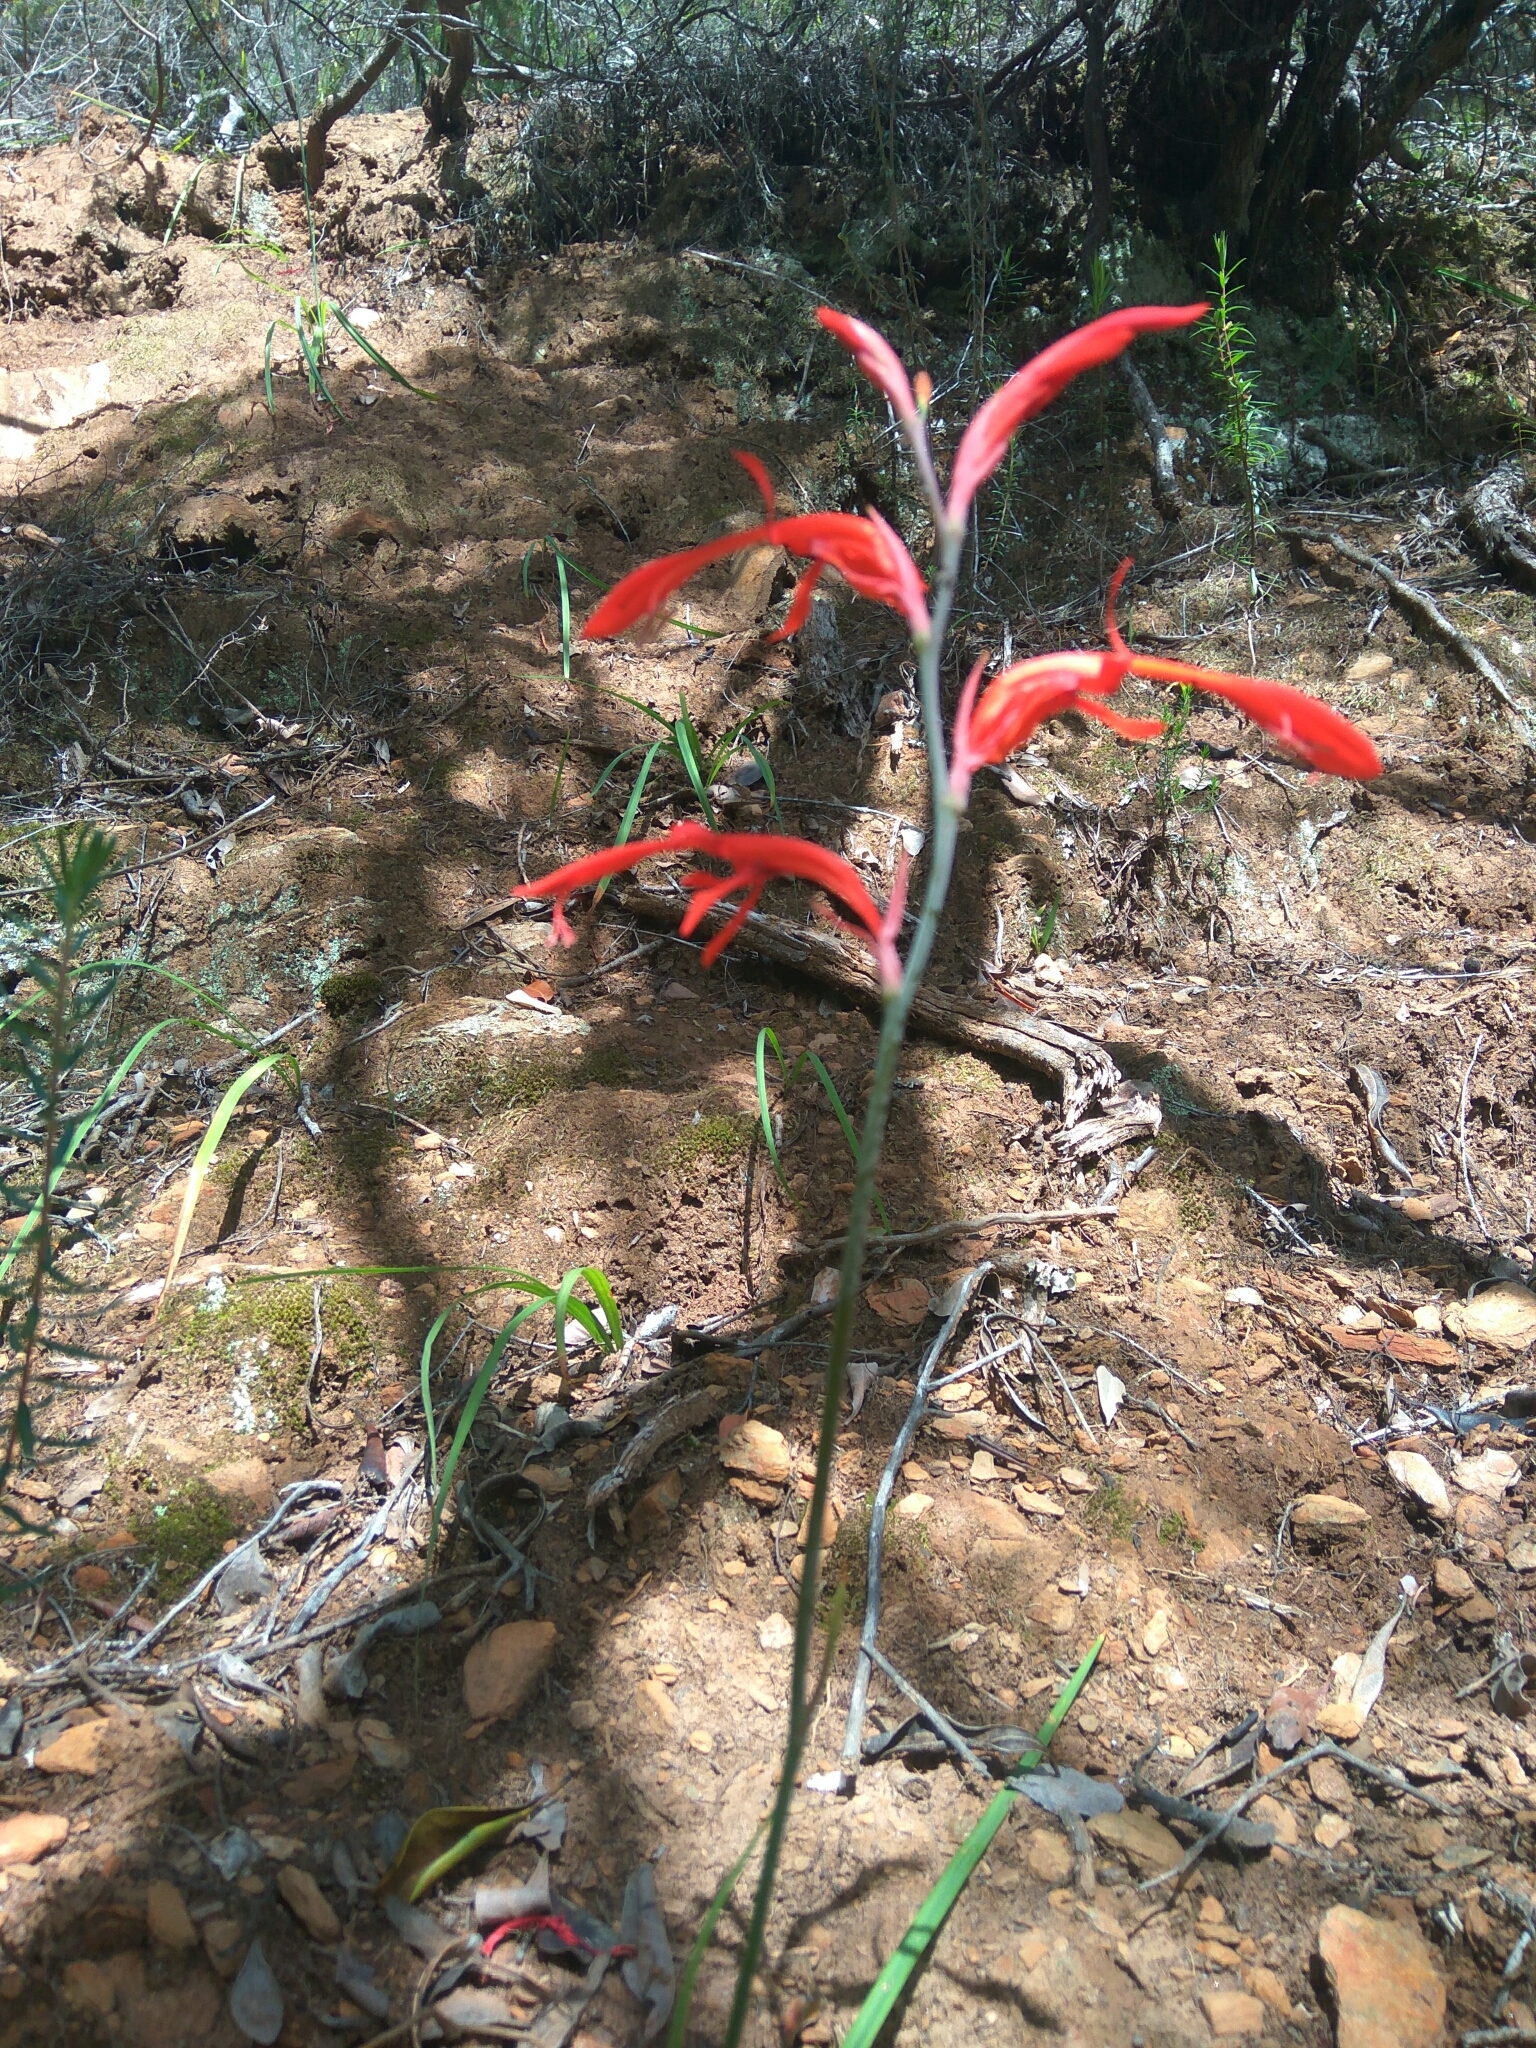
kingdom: Plantae
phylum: Tracheophyta
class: Liliopsida
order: Asparagales
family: Iridaceae
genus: Tritoniopsis
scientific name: Tritoniopsis caffra
